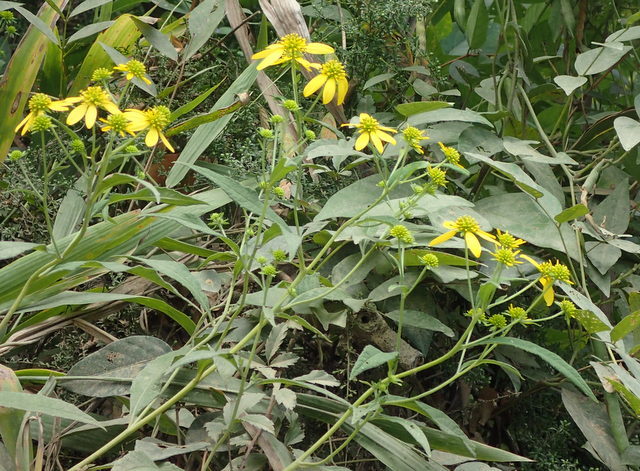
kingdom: Plantae
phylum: Tracheophyta
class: Magnoliopsida
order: Asterales
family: Asteraceae
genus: Rudbeckia
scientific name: Rudbeckia laciniata
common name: Coneflower
